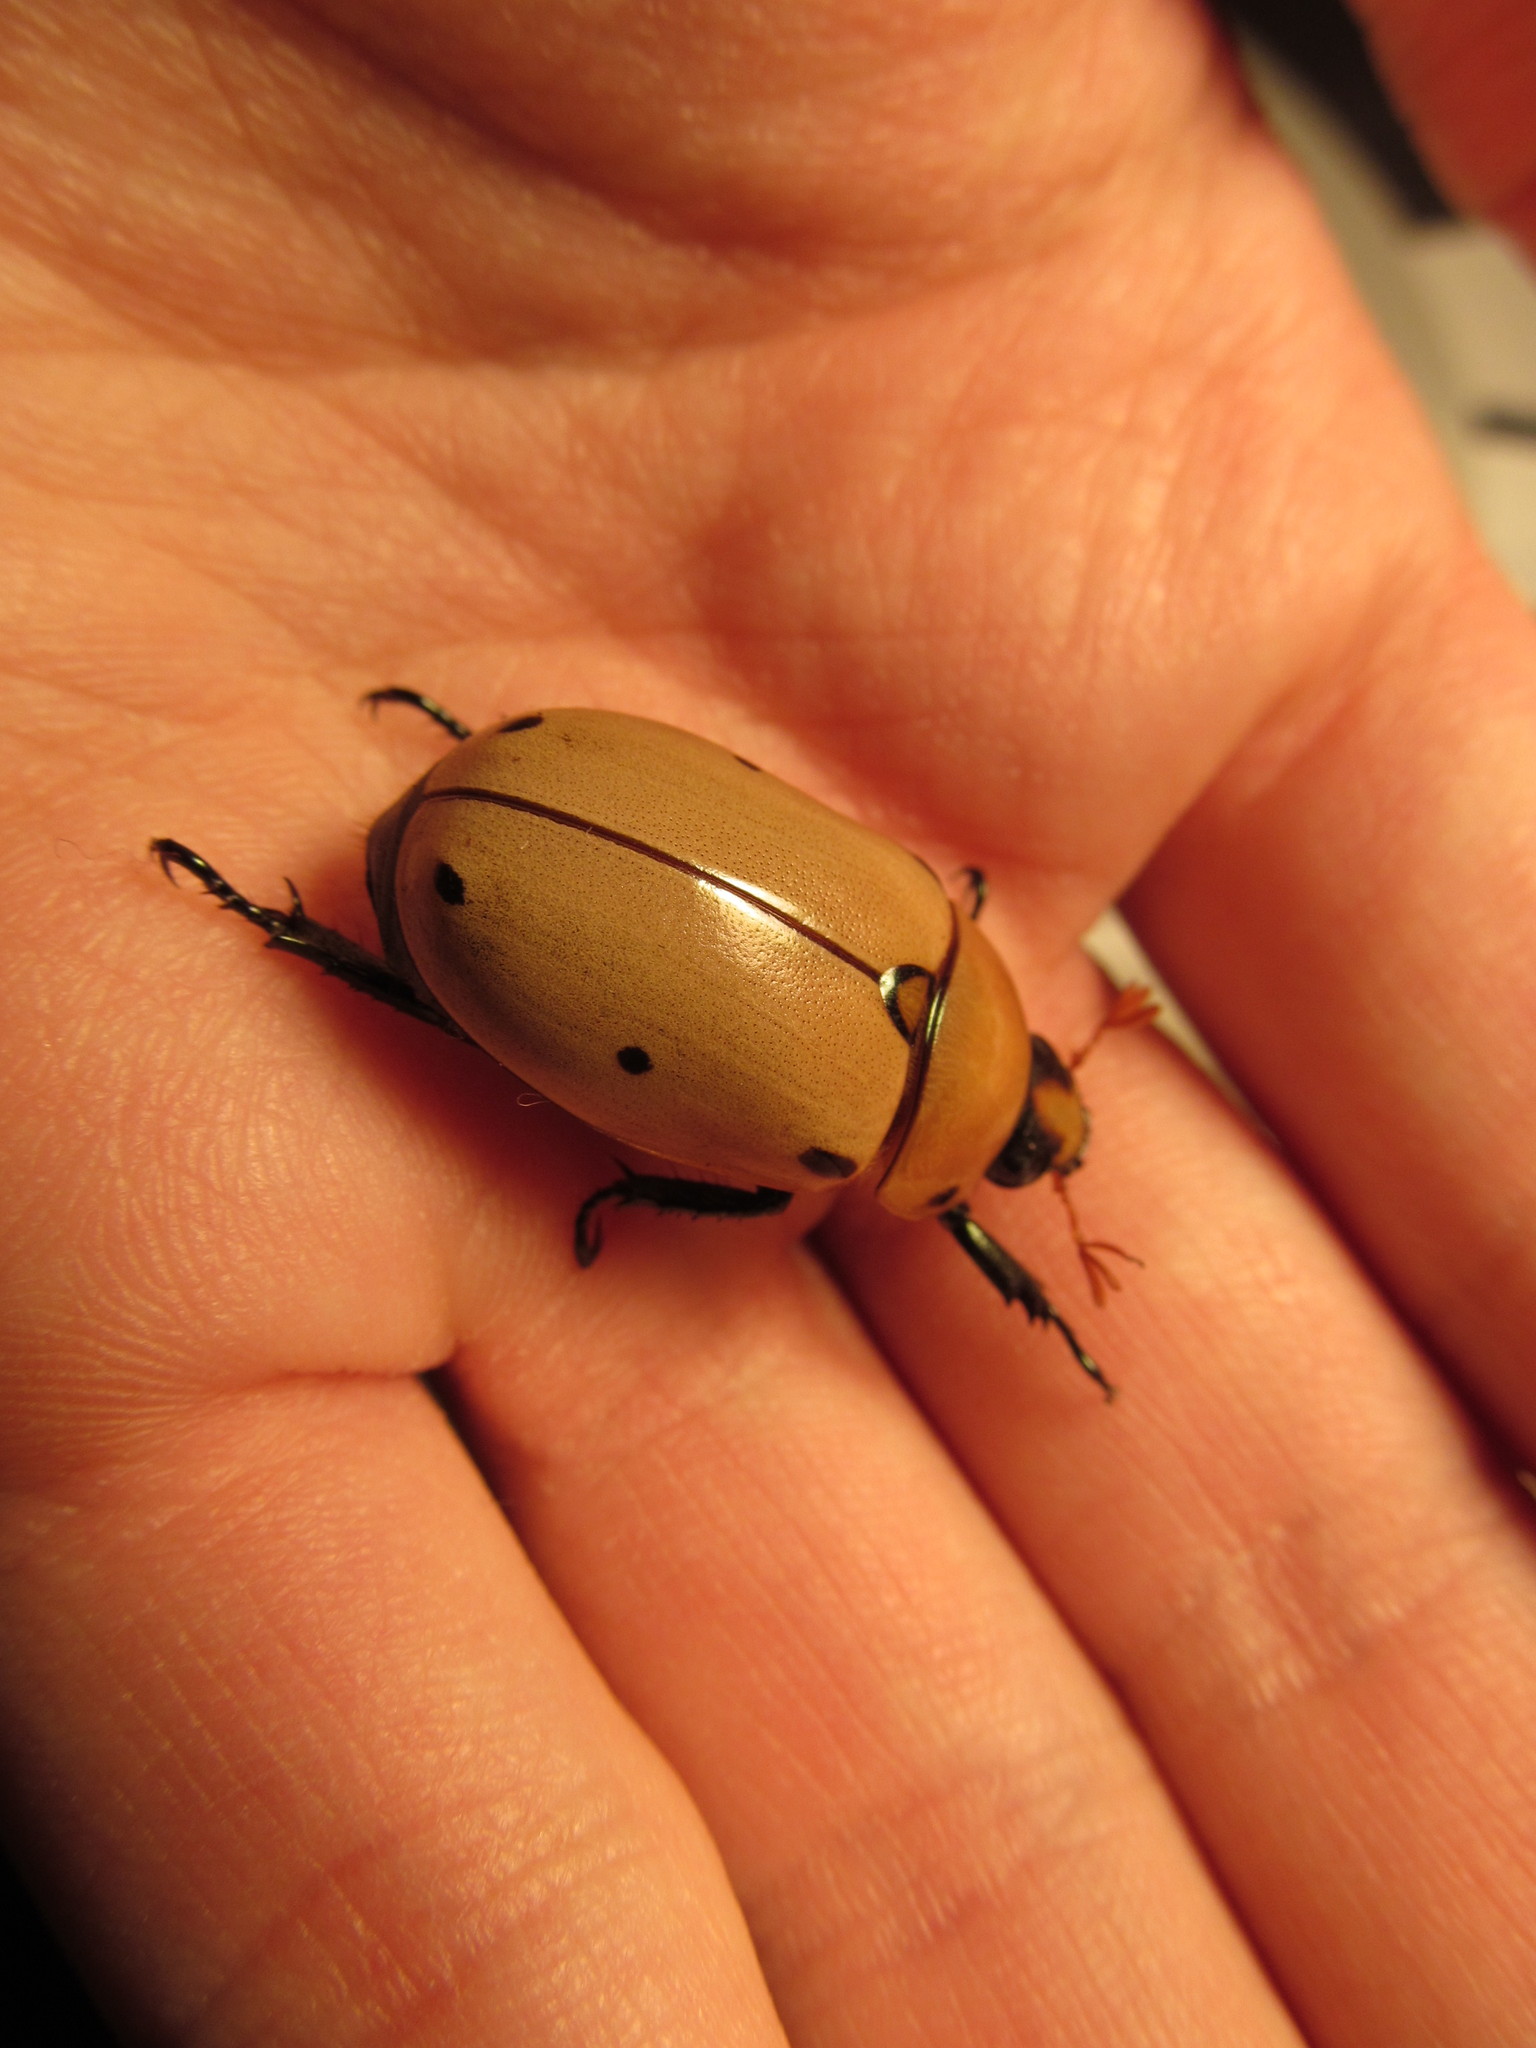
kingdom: Animalia
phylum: Arthropoda
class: Insecta
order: Coleoptera
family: Scarabaeidae
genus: Pelidnota
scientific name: Pelidnota punctata
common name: Grapevine beetle
